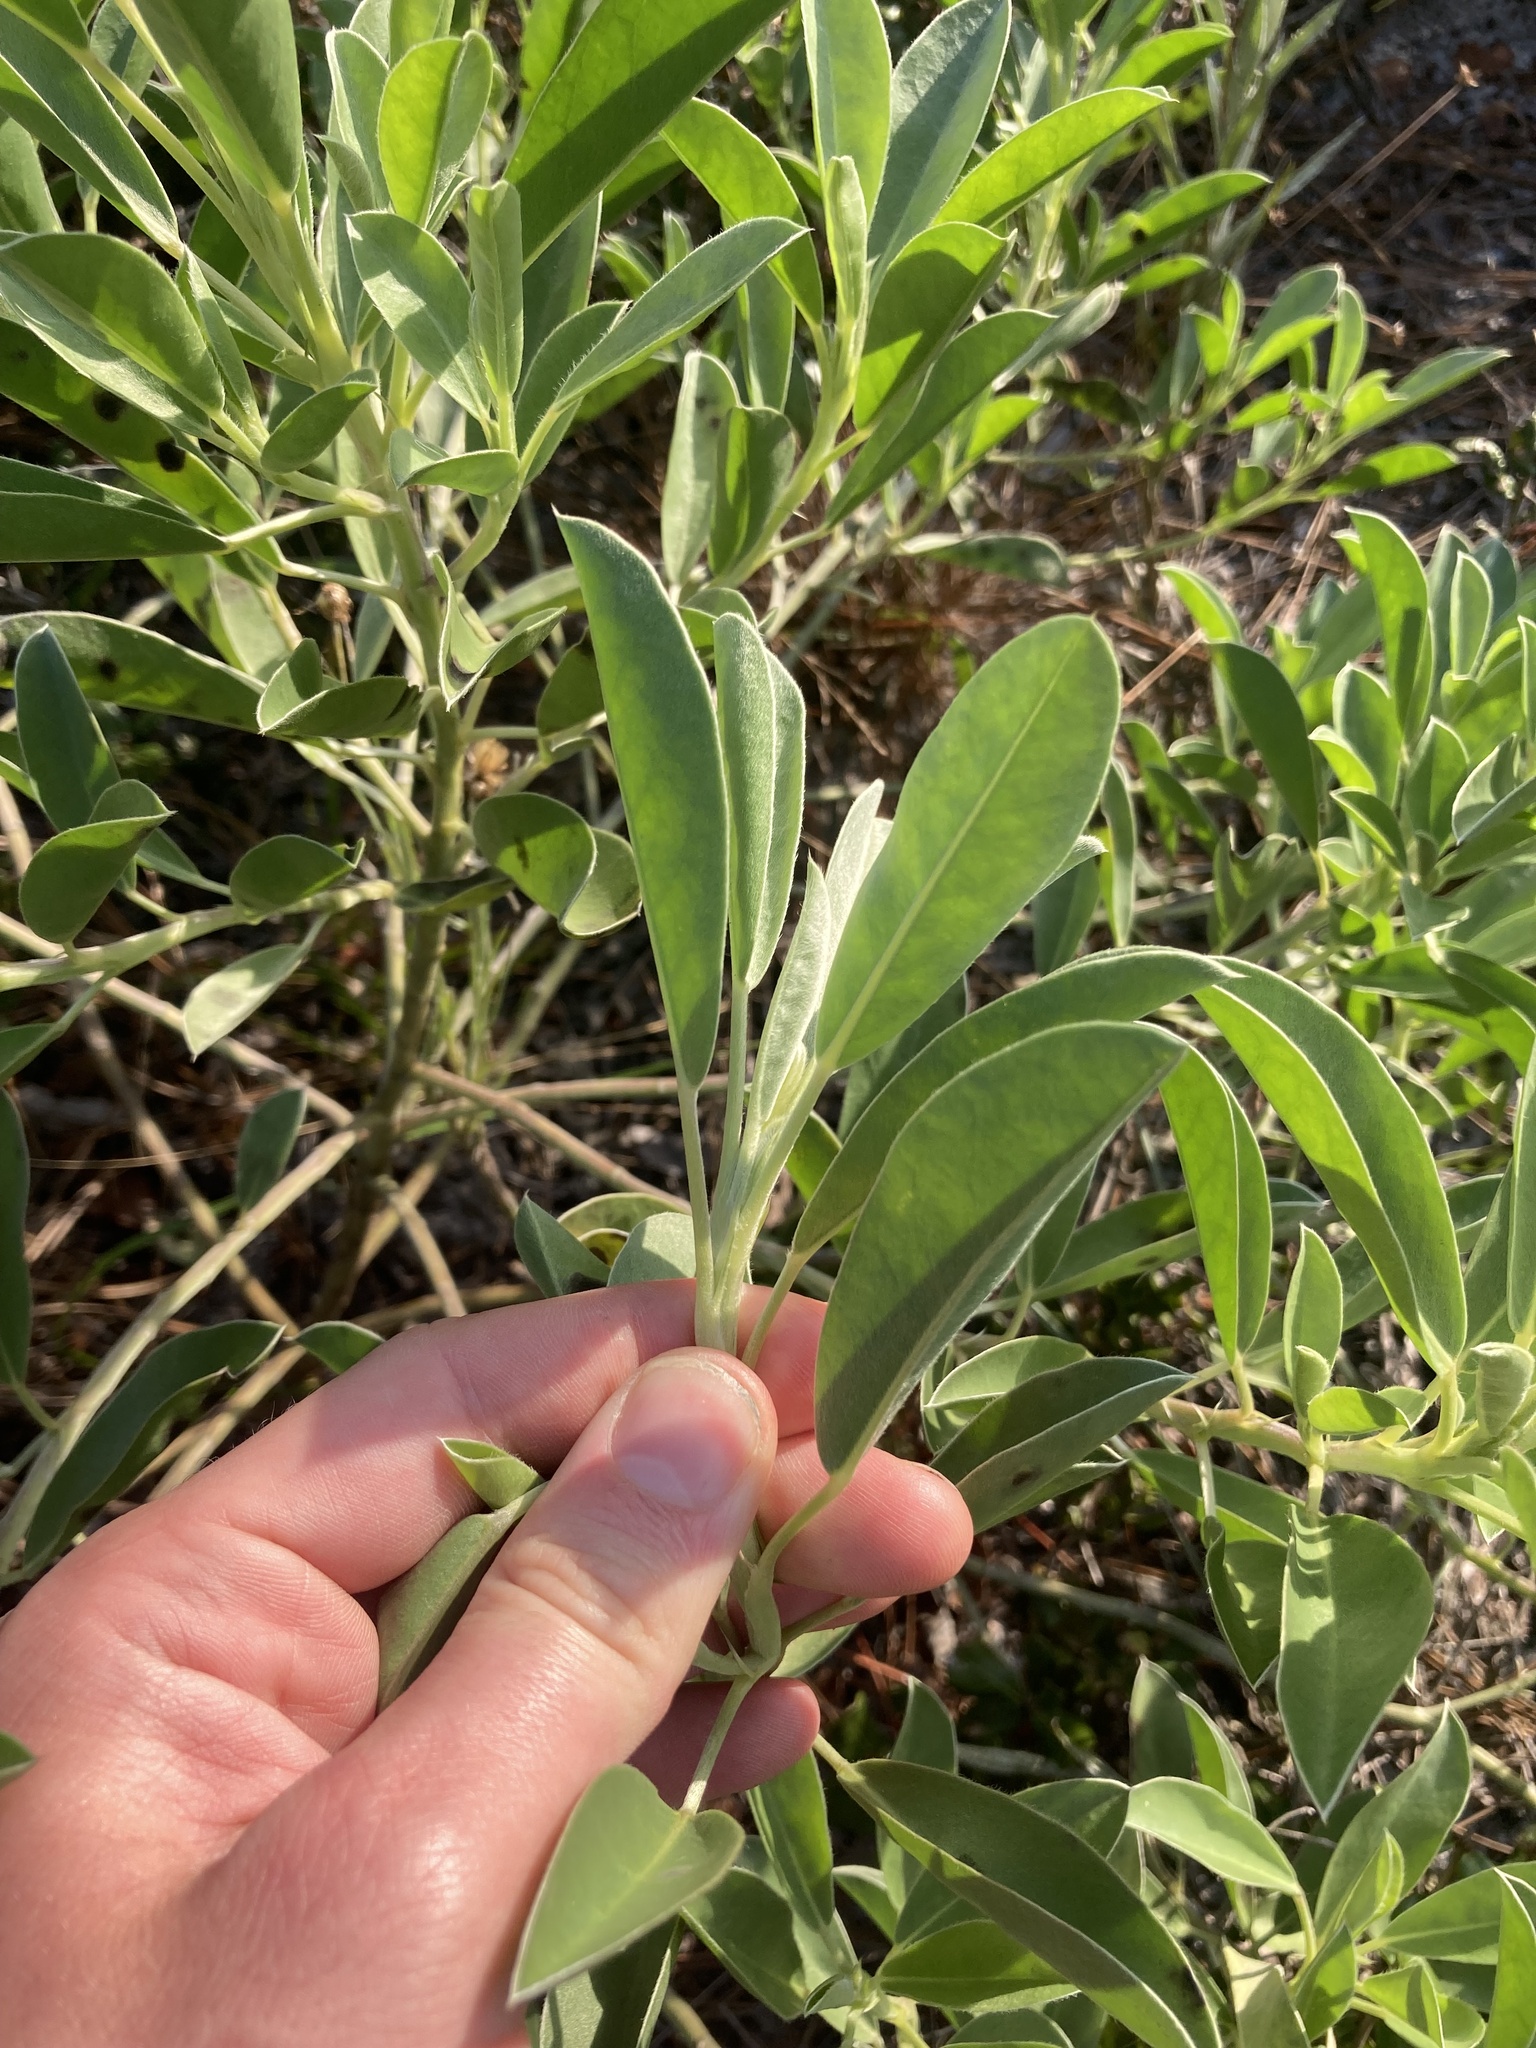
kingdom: Plantae
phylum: Tracheophyta
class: Magnoliopsida
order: Fabales
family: Fabaceae
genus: Lupinus
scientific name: Lupinus
